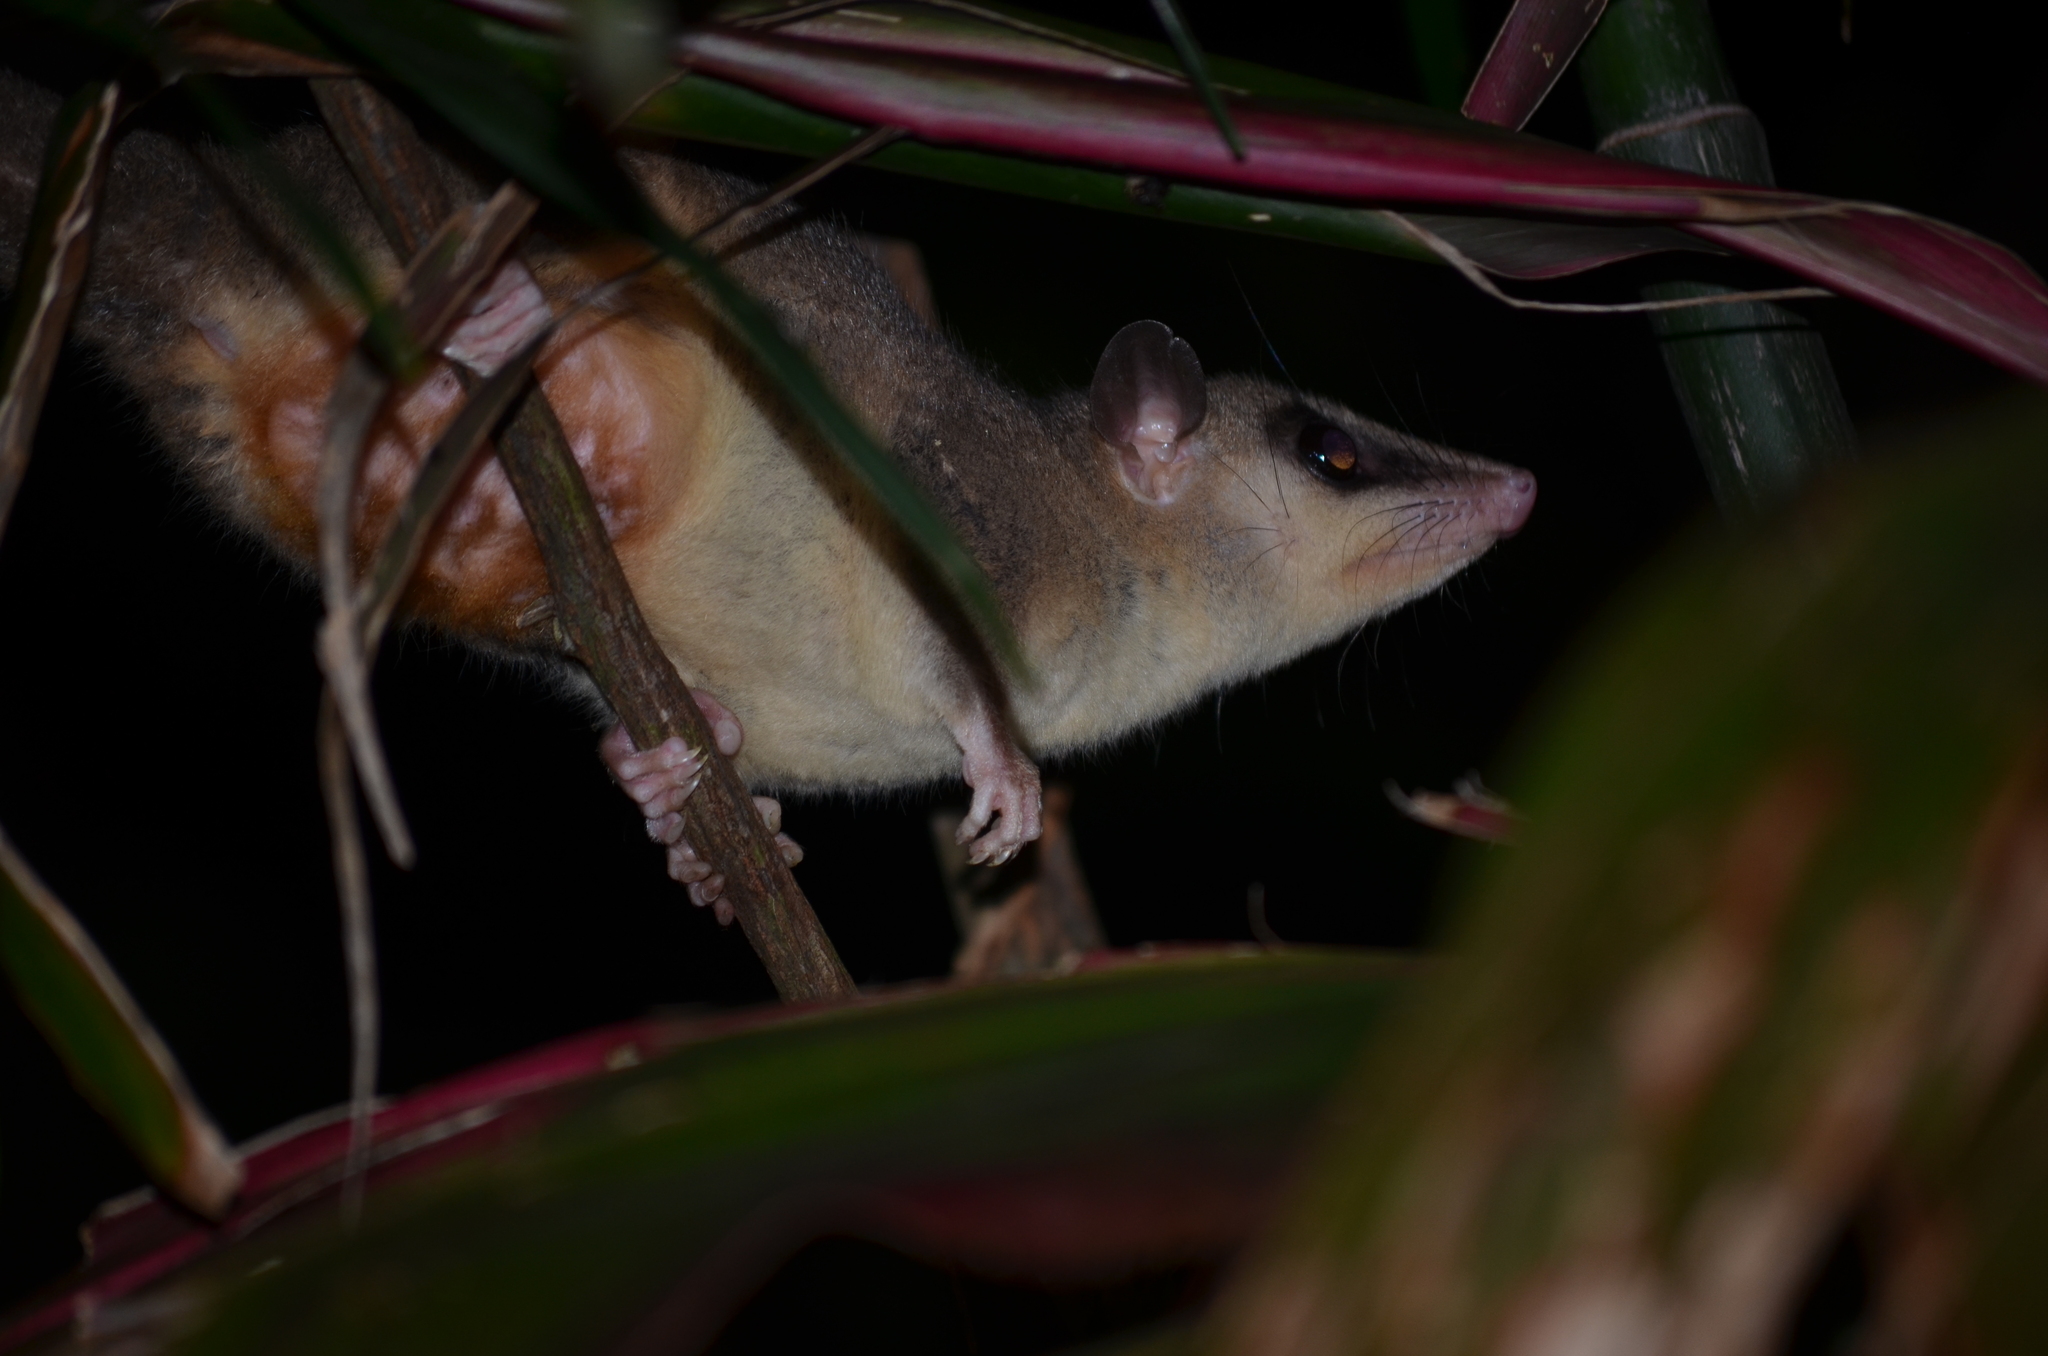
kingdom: Animalia
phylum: Chordata
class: Mammalia
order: Didelphimorphia
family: Didelphidae
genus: Caluromys
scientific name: Caluromys derbianus
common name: Derby's woolly opossum
